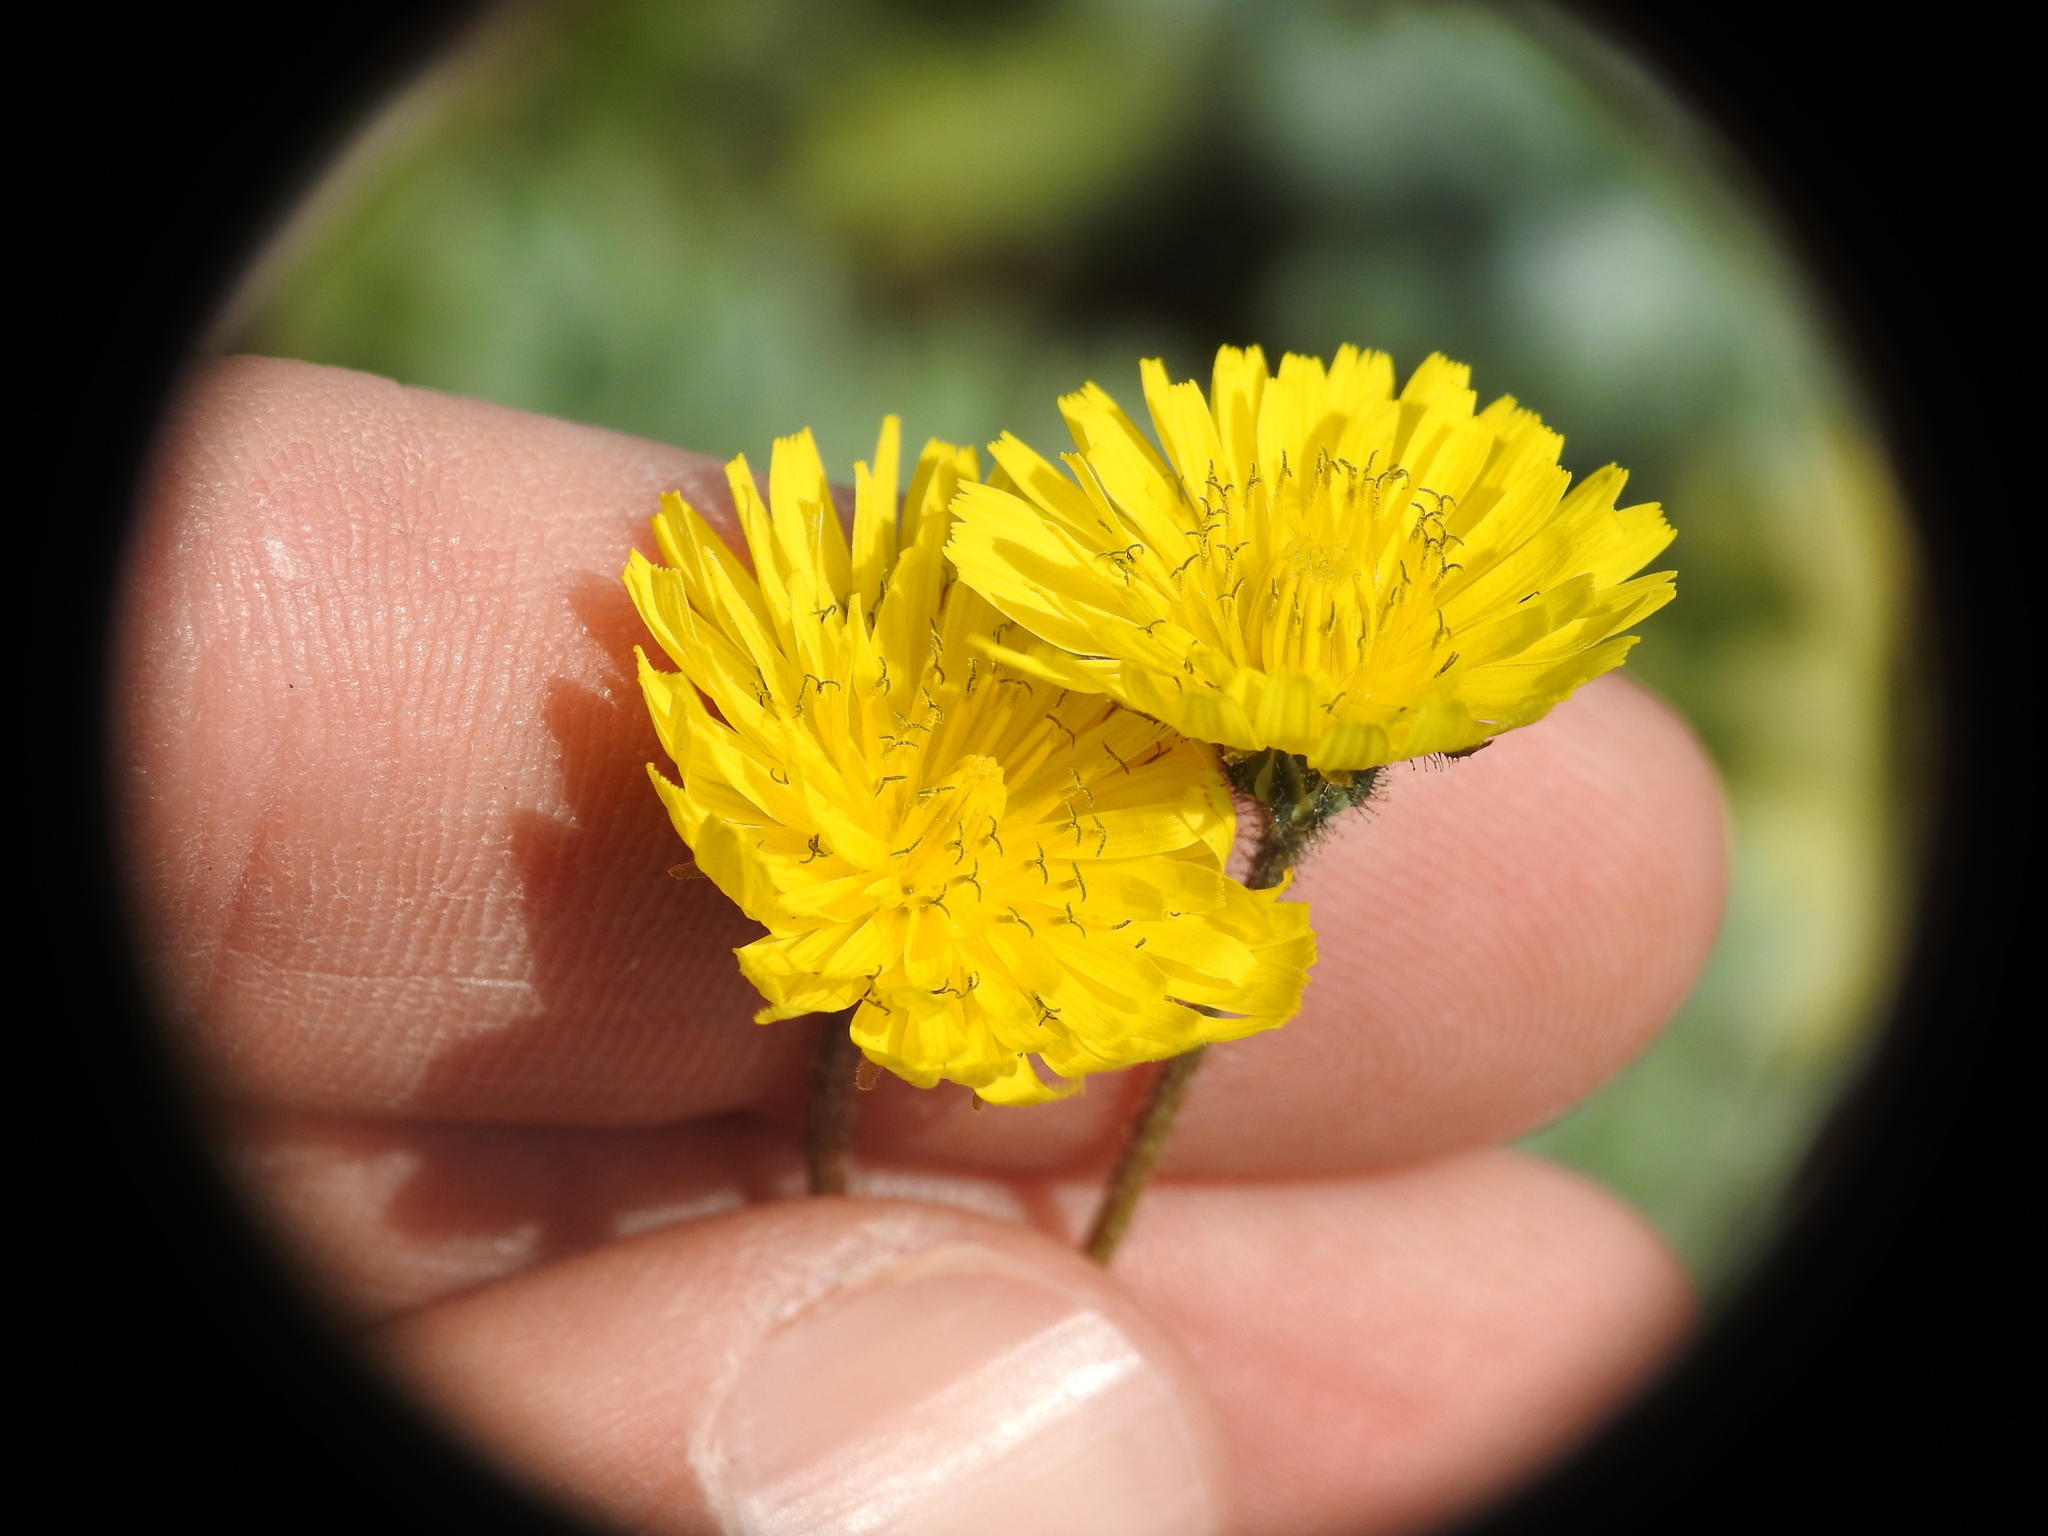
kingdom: Plantae
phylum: Tracheophyta
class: Magnoliopsida
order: Asterales
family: Asteraceae
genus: Crepis
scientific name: Crepis sancta
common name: Hawk's-beard
